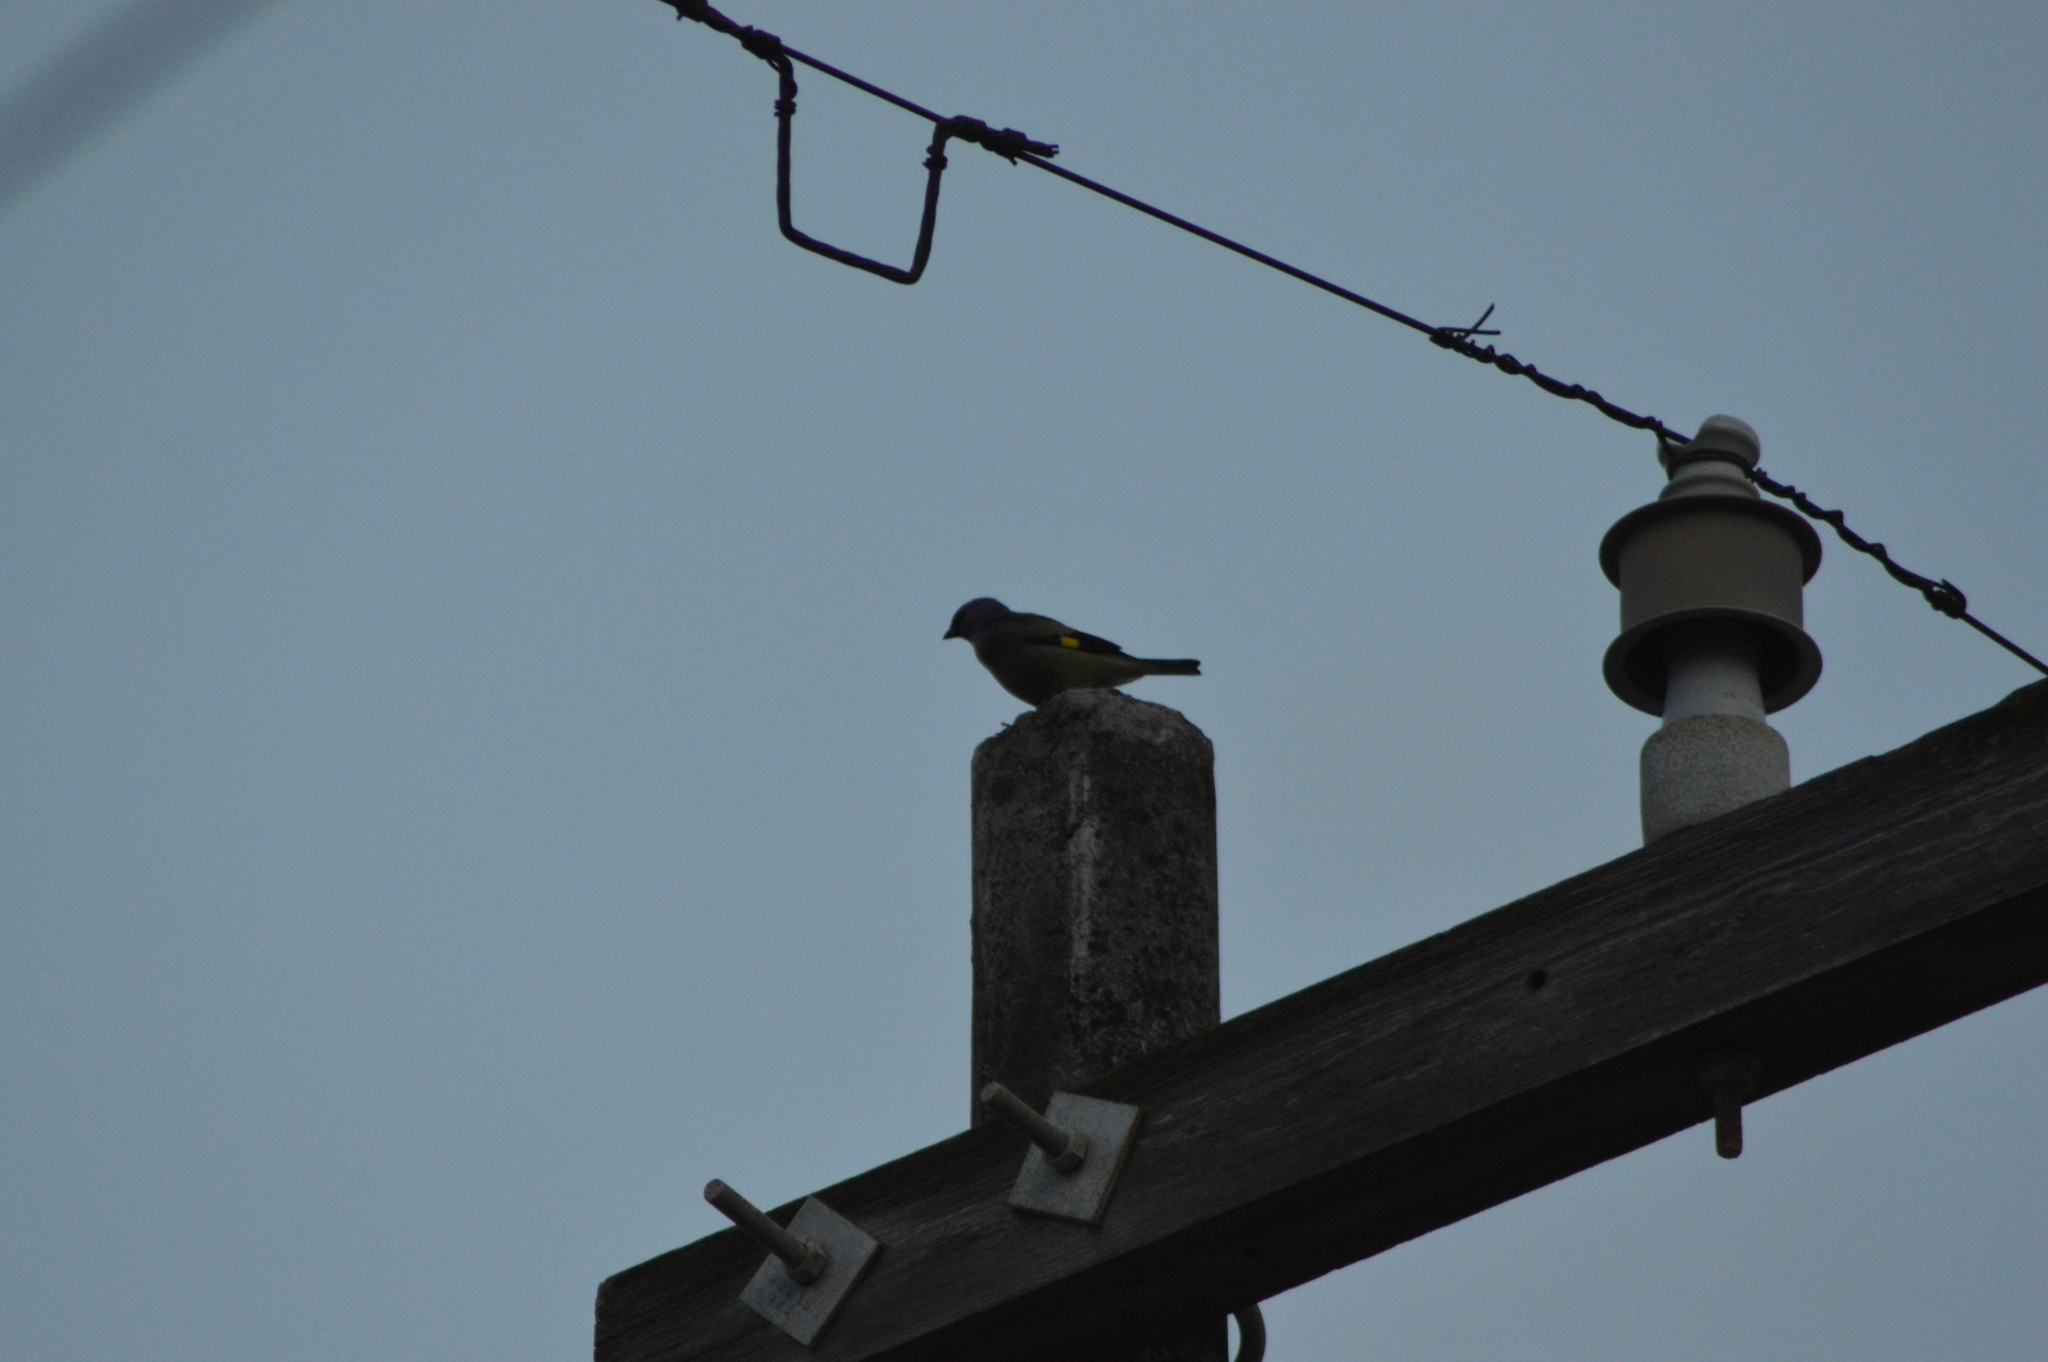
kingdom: Animalia
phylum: Chordata
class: Aves
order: Passeriformes
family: Thraupidae
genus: Thraupis
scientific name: Thraupis abbas
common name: Yellow-winged tanager
